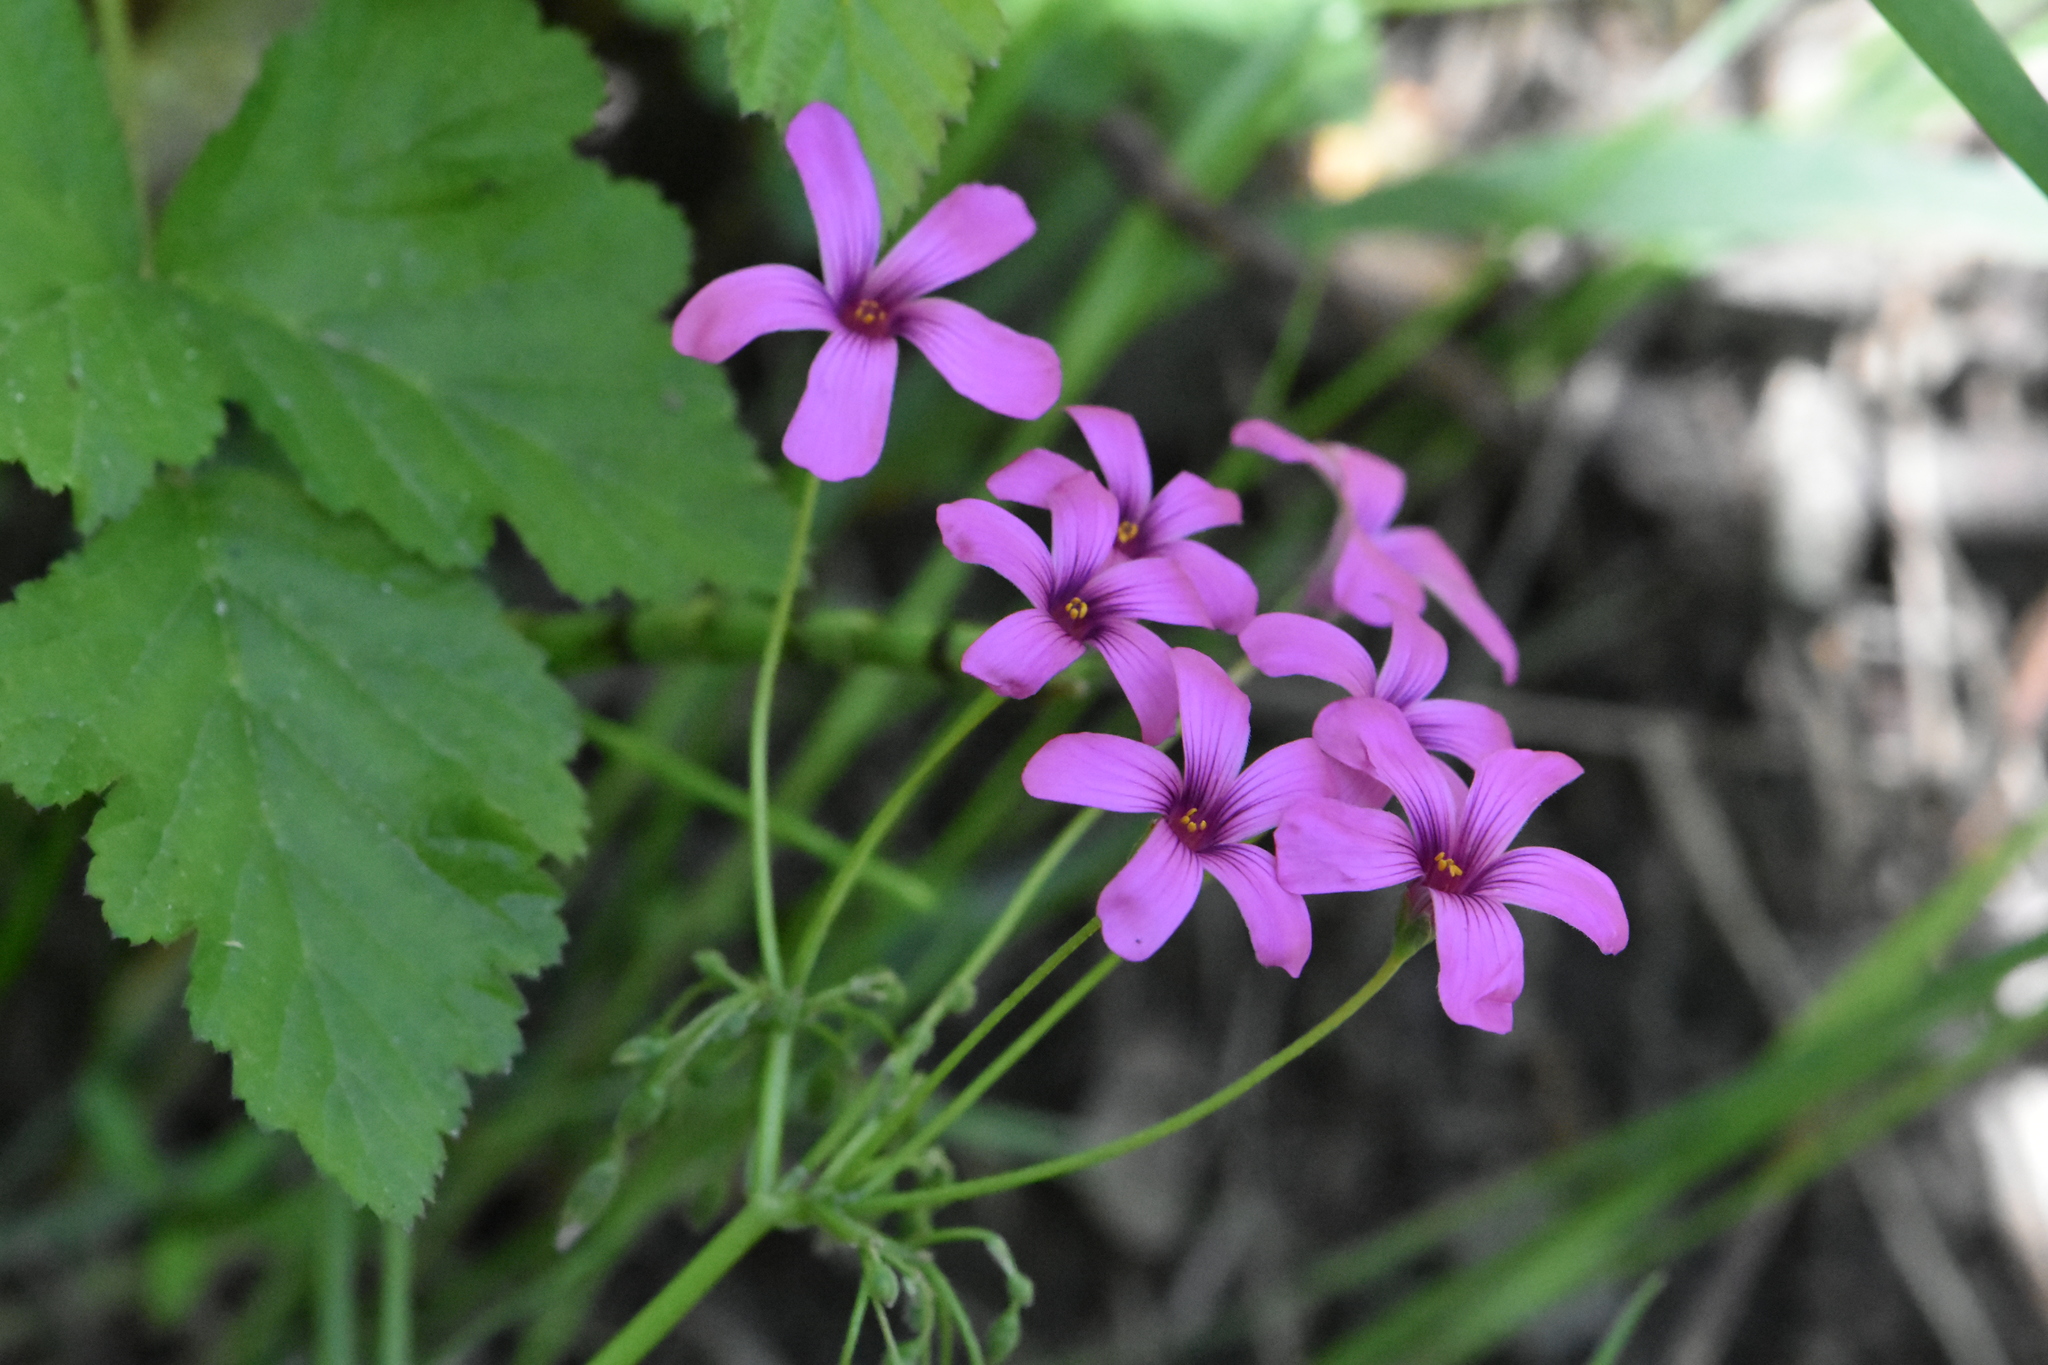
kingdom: Plantae
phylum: Tracheophyta
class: Magnoliopsida
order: Oxalidales
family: Oxalidaceae
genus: Oxalis
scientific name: Oxalis articulata
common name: Pink-sorrel
